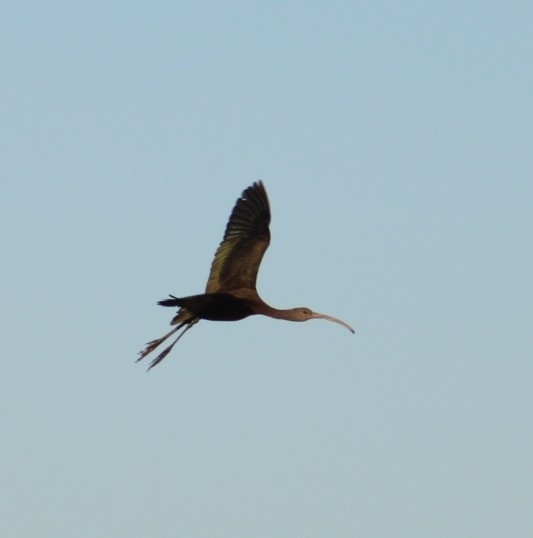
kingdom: Animalia
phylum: Chordata
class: Aves
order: Pelecaniformes
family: Threskiornithidae
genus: Plegadis
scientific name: Plegadis chihi
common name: White-faced ibis
